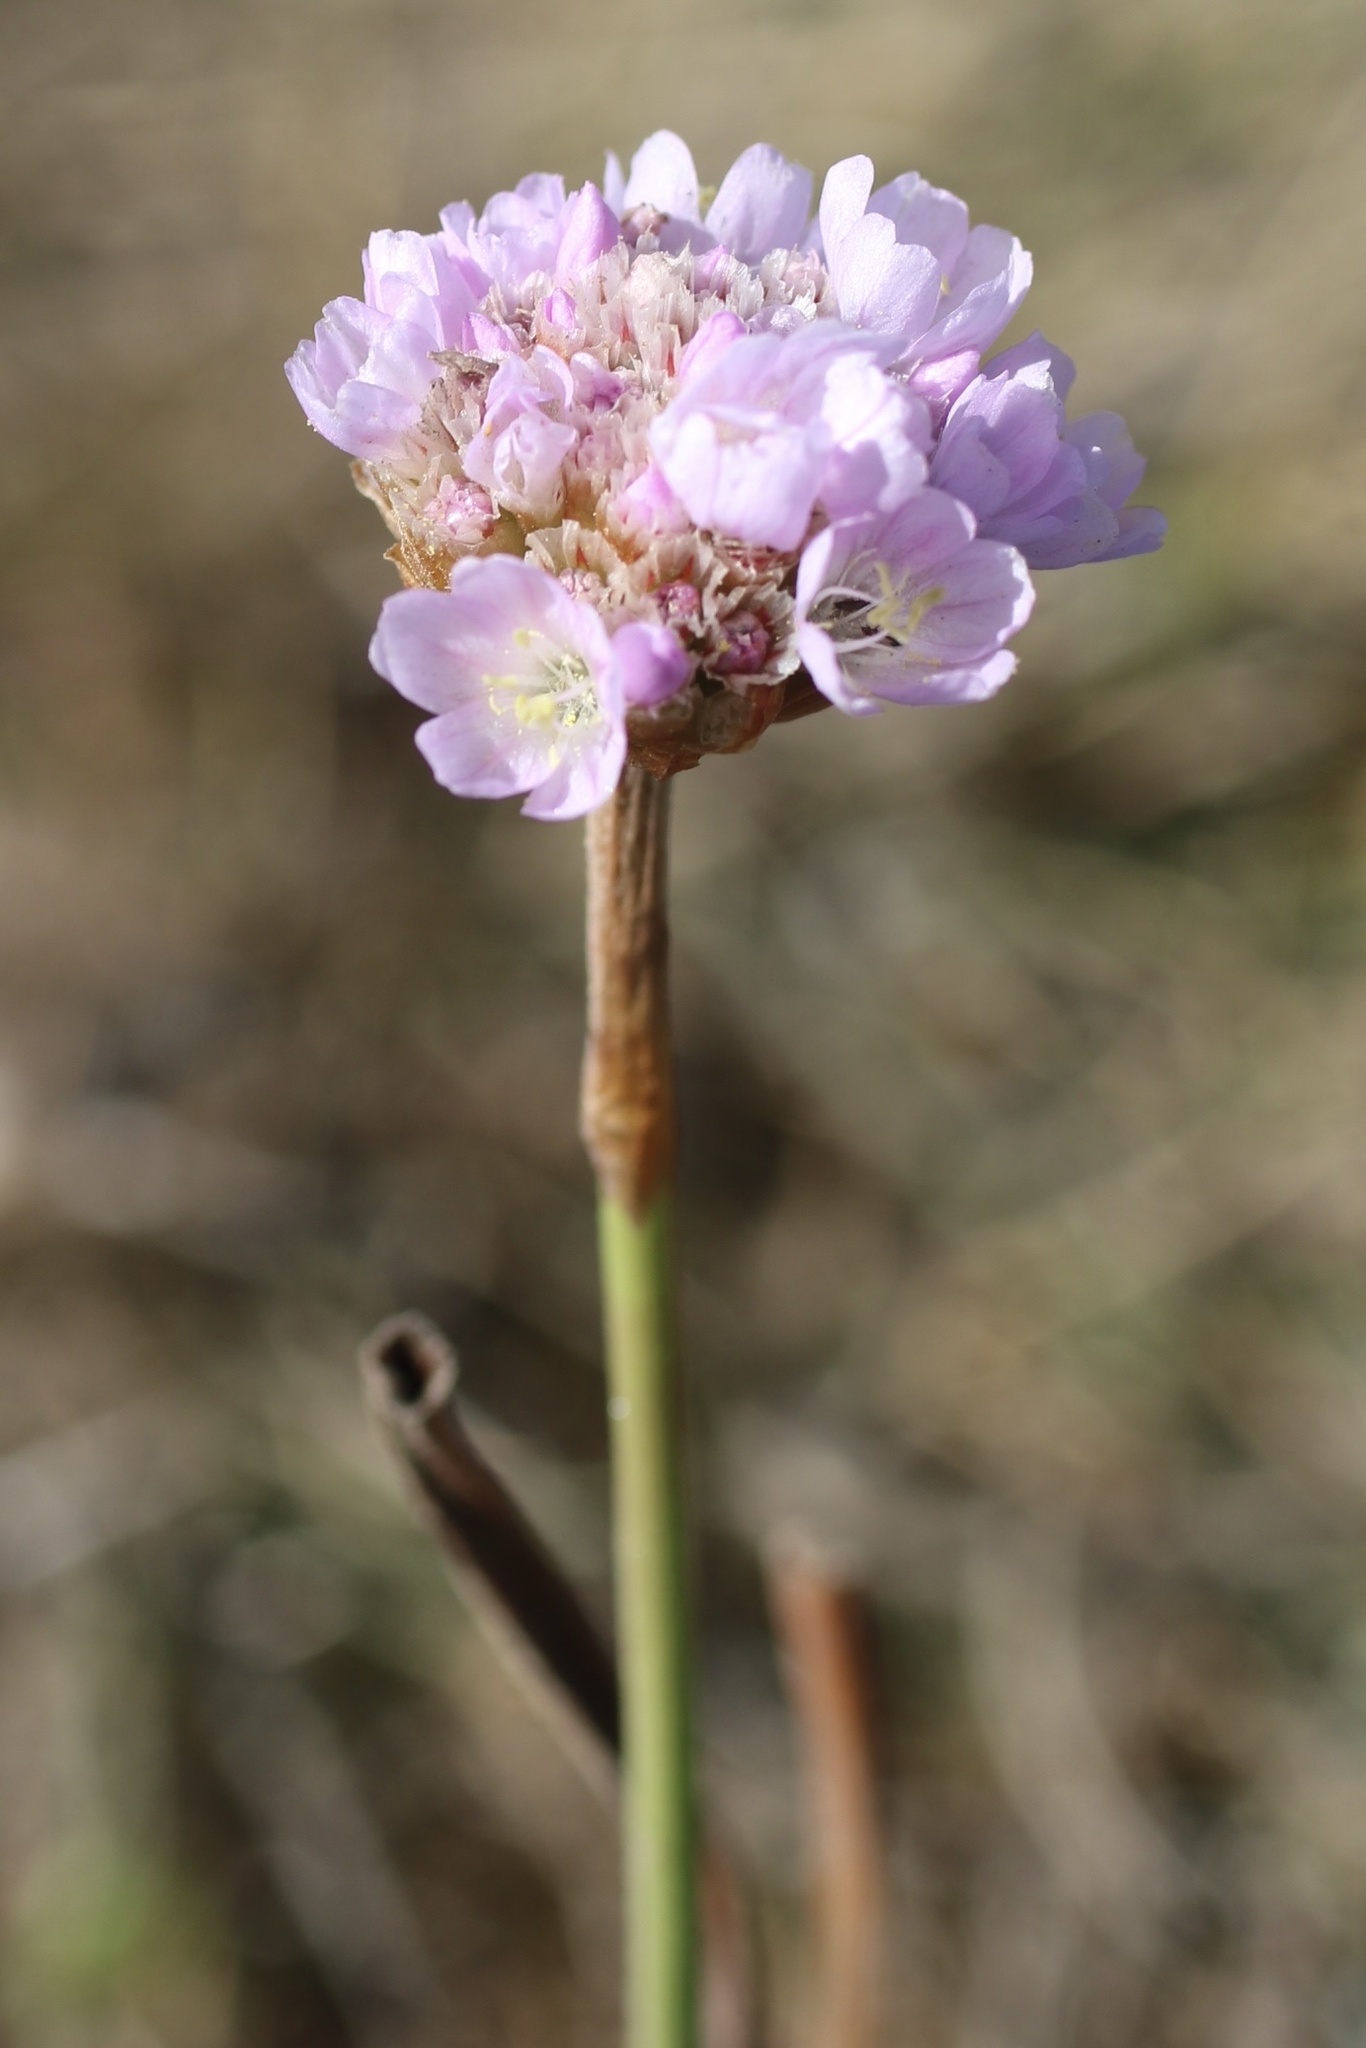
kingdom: Plantae
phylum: Tracheophyta
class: Magnoliopsida
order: Caryophyllales
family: Plumbaginaceae
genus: Armeria
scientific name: Armeria maritima
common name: Thrift
